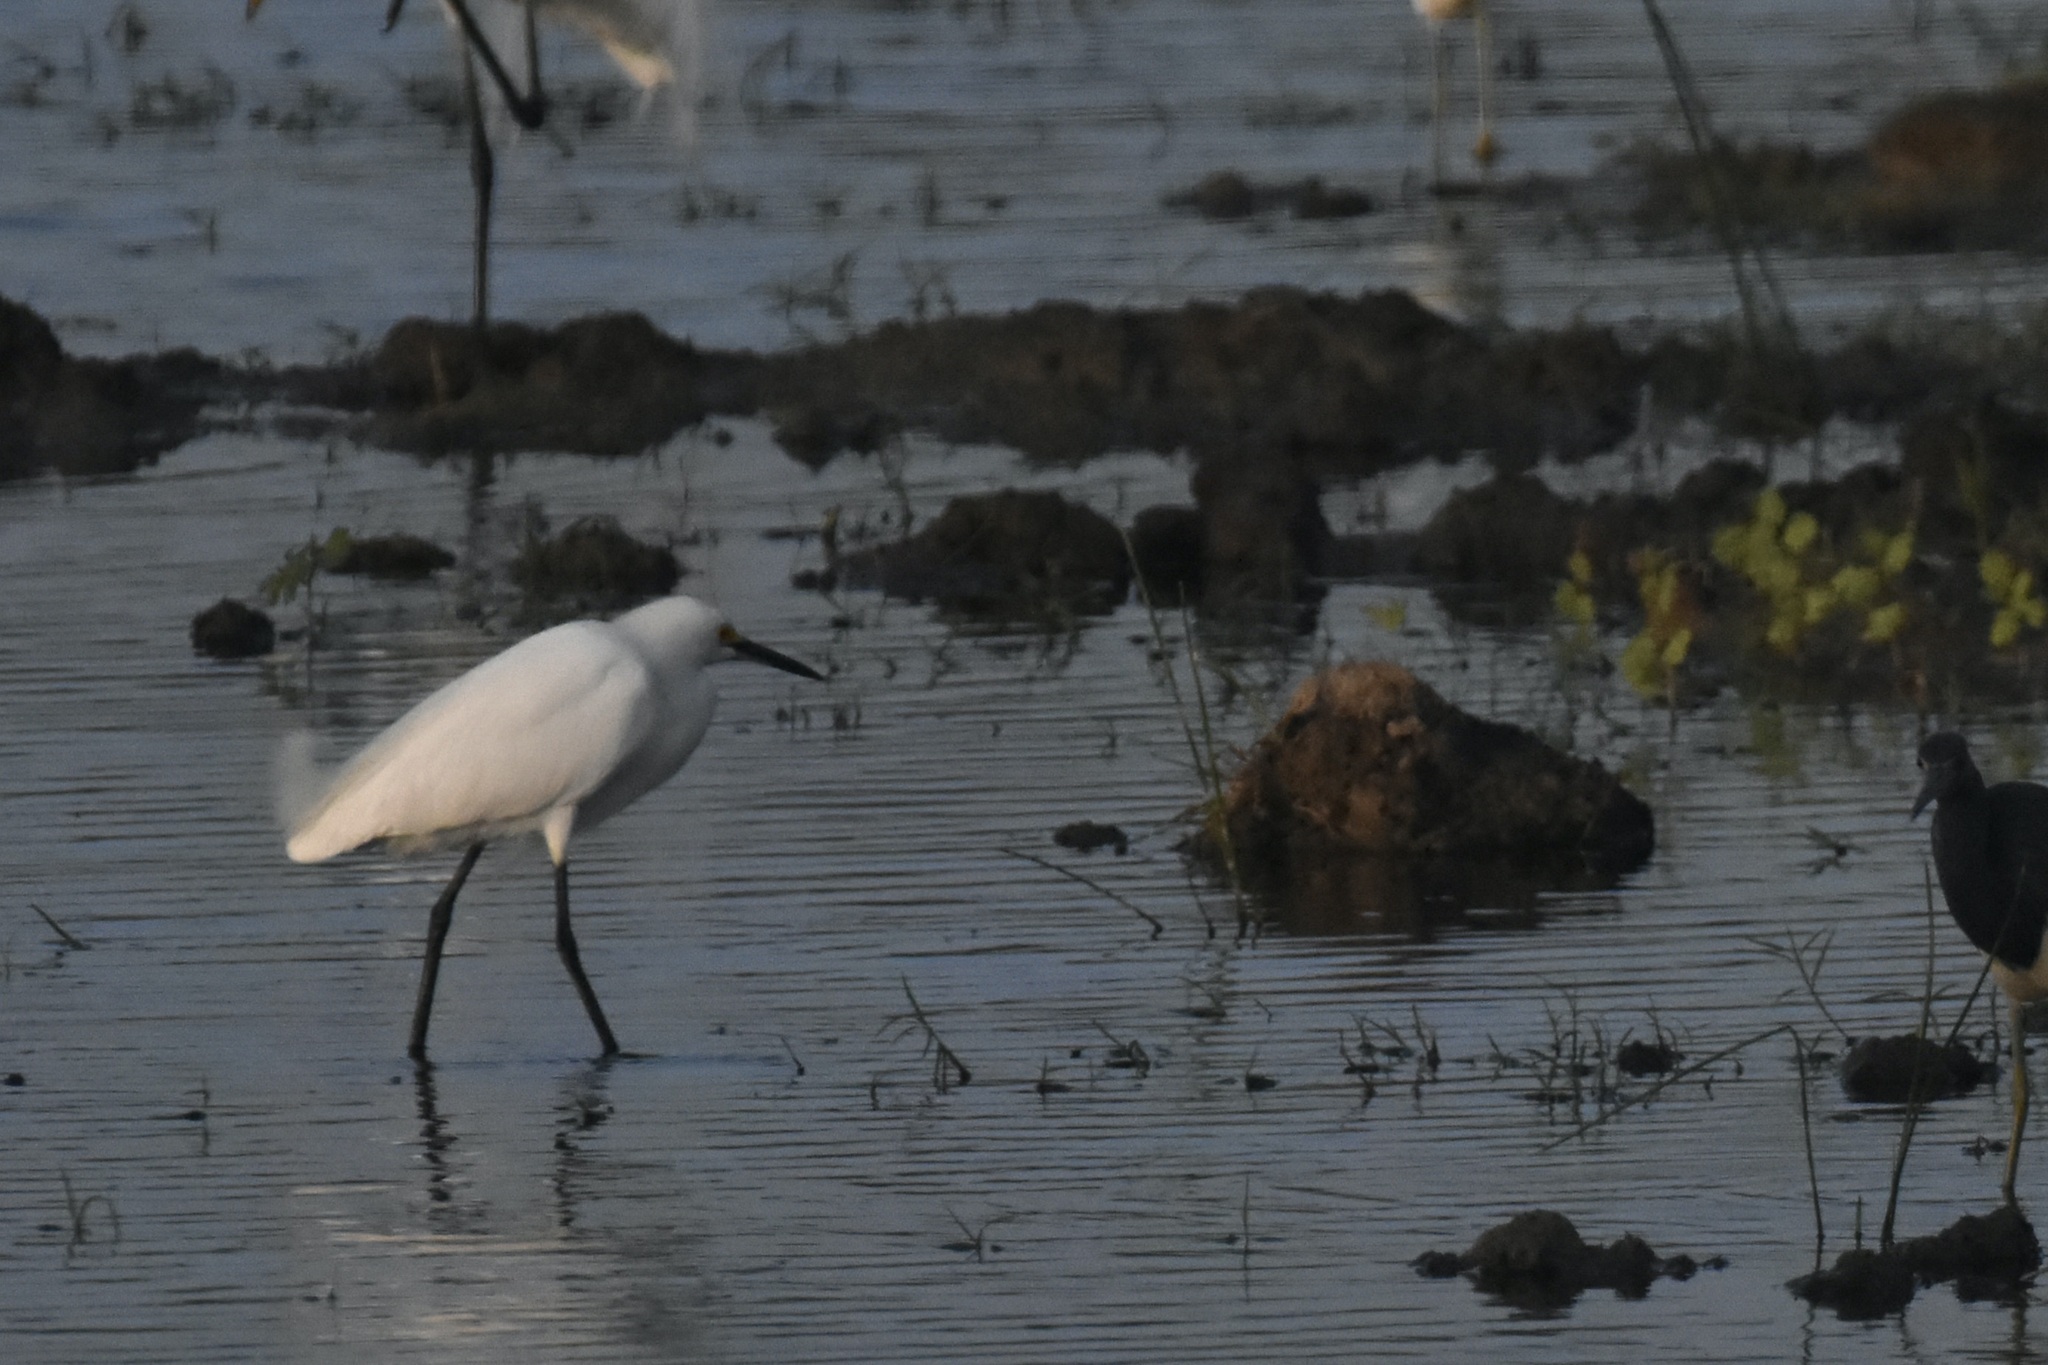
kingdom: Animalia
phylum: Chordata
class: Aves
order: Pelecaniformes
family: Ardeidae
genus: Egretta
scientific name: Egretta thula
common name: Snowy egret
